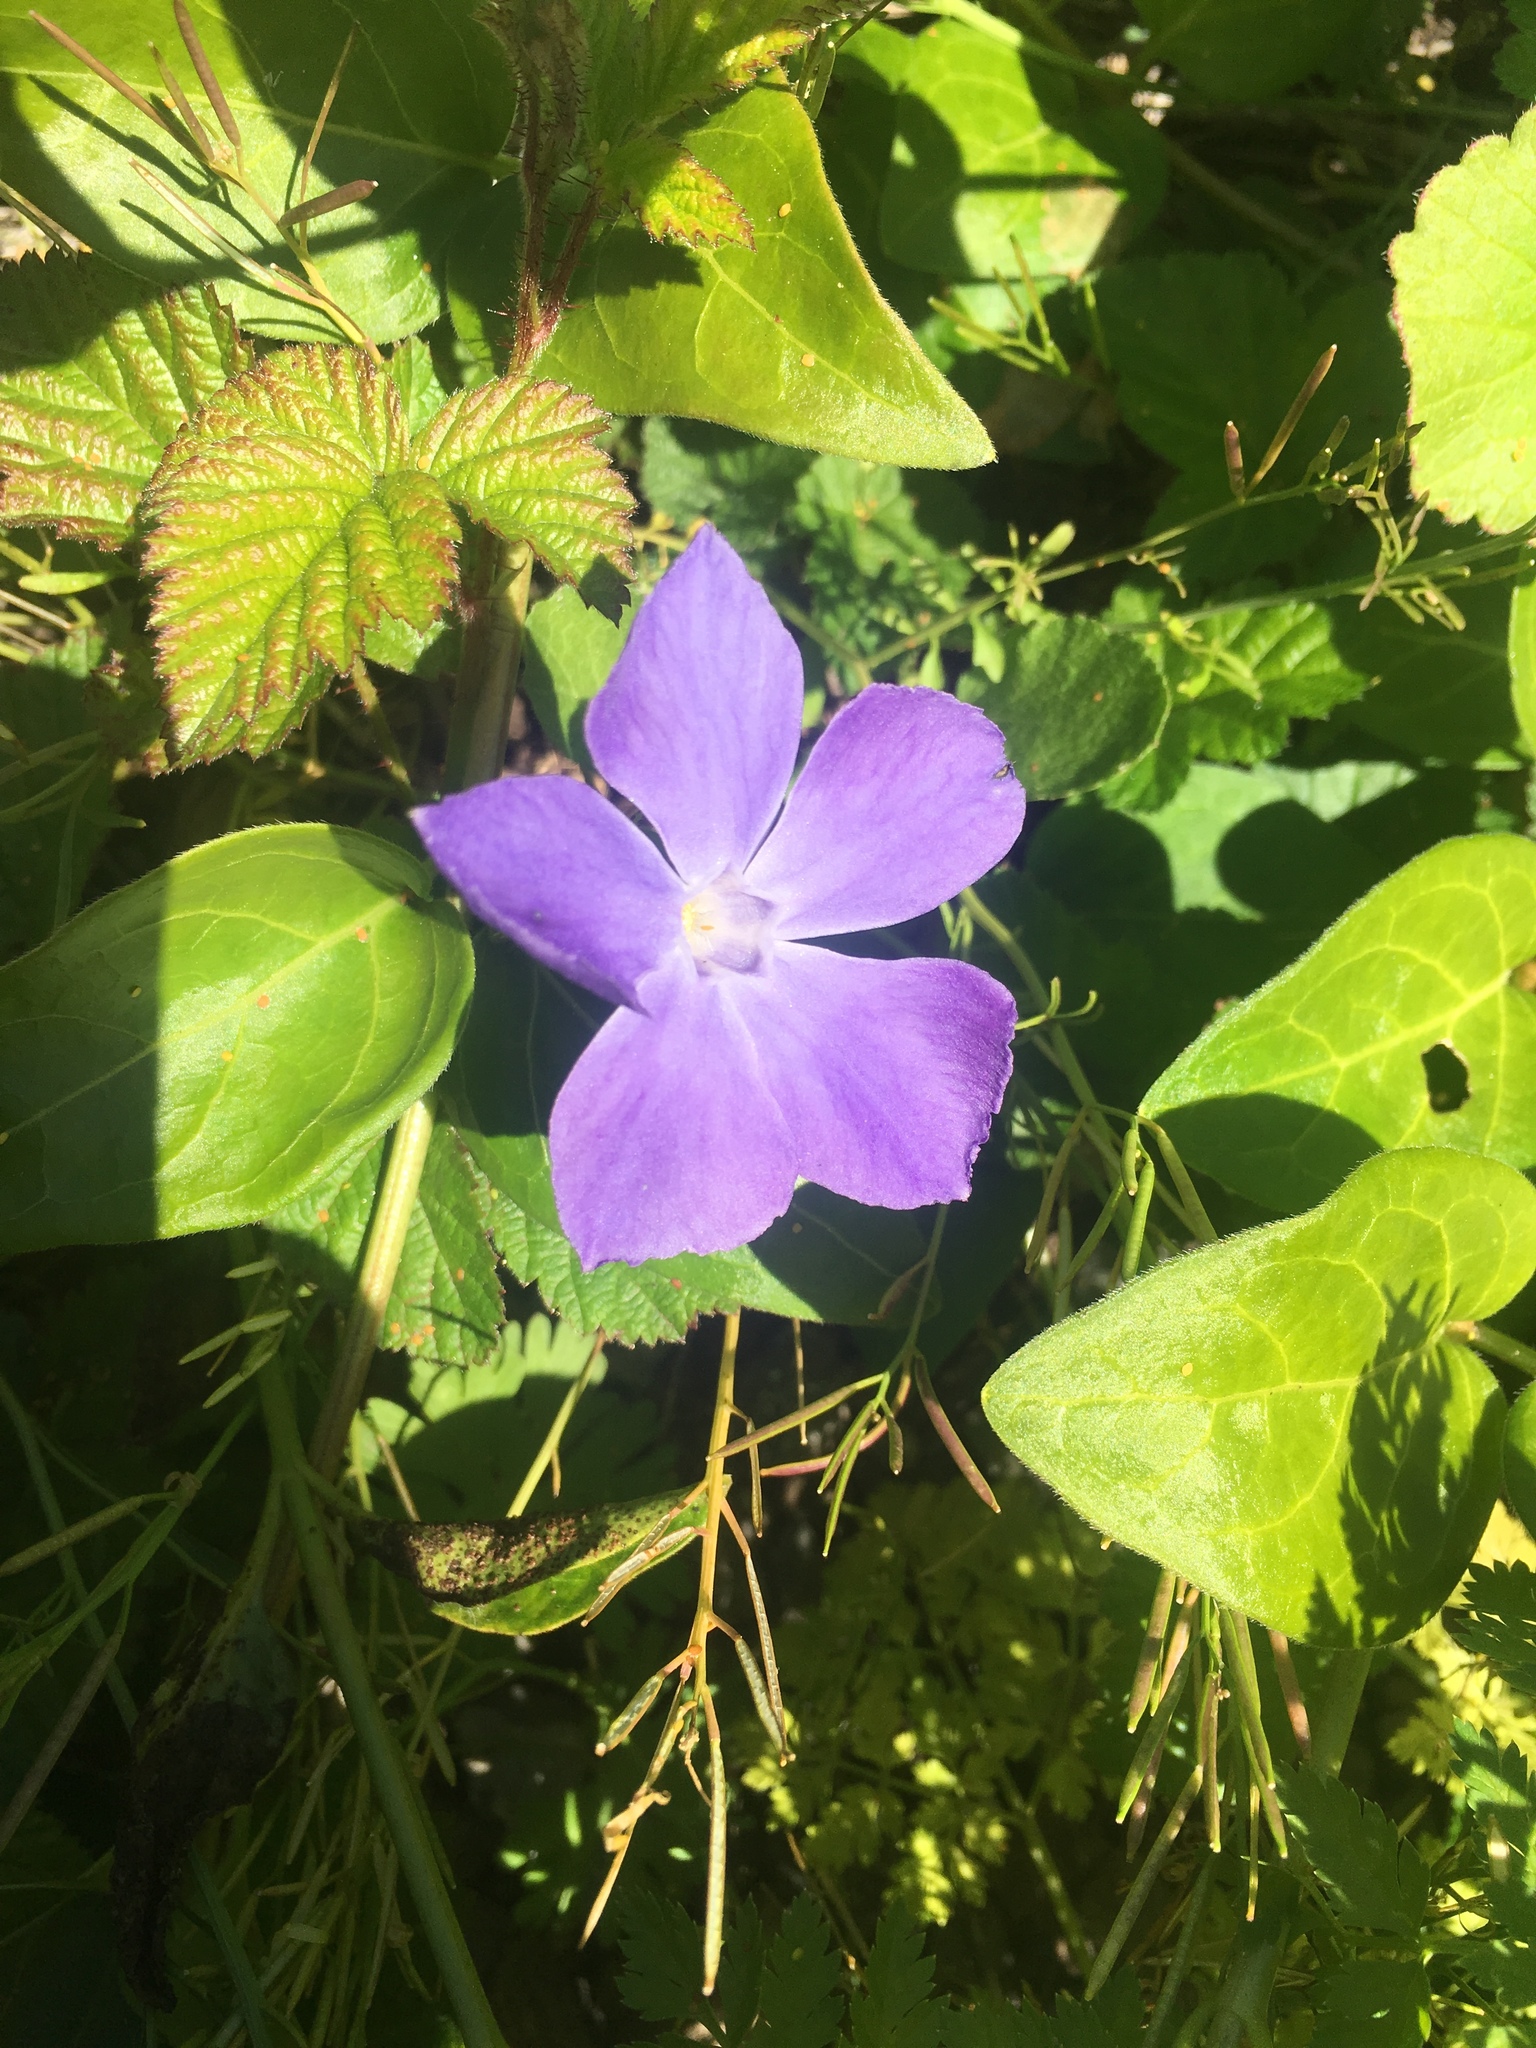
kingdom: Plantae
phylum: Tracheophyta
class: Magnoliopsida
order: Gentianales
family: Apocynaceae
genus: Vinca
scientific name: Vinca major
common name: Greater periwinkle
